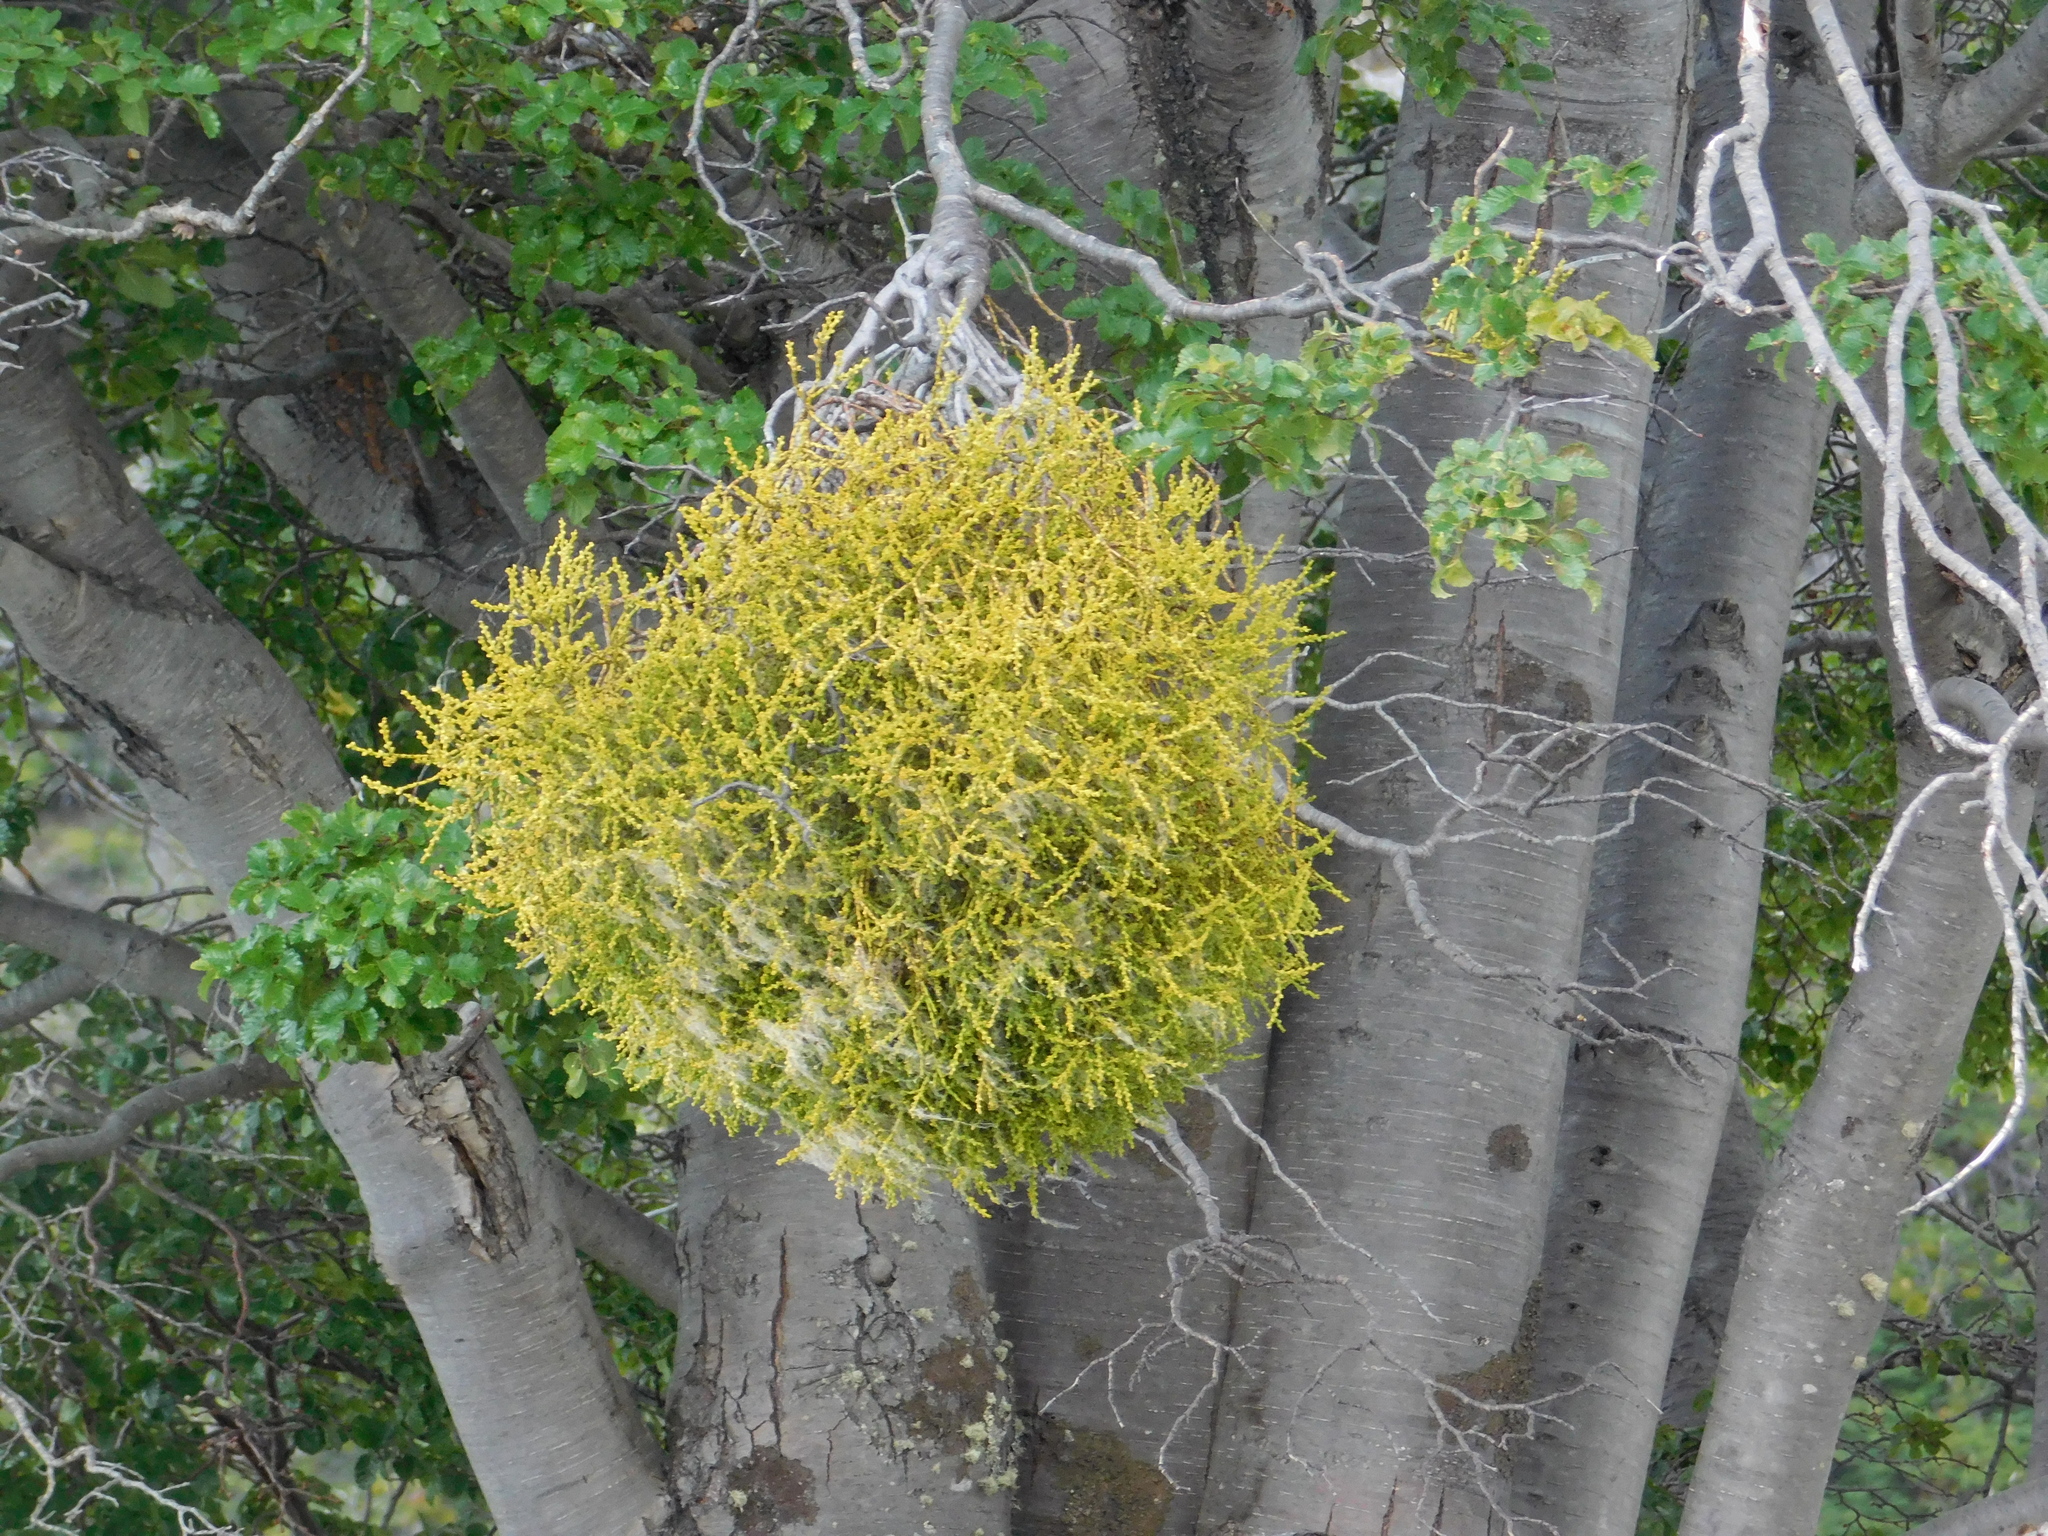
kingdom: Plantae
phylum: Tracheophyta
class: Magnoliopsida
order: Santalales
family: Misodendraceae
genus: Misodendrum
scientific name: Misodendrum punctulatum
